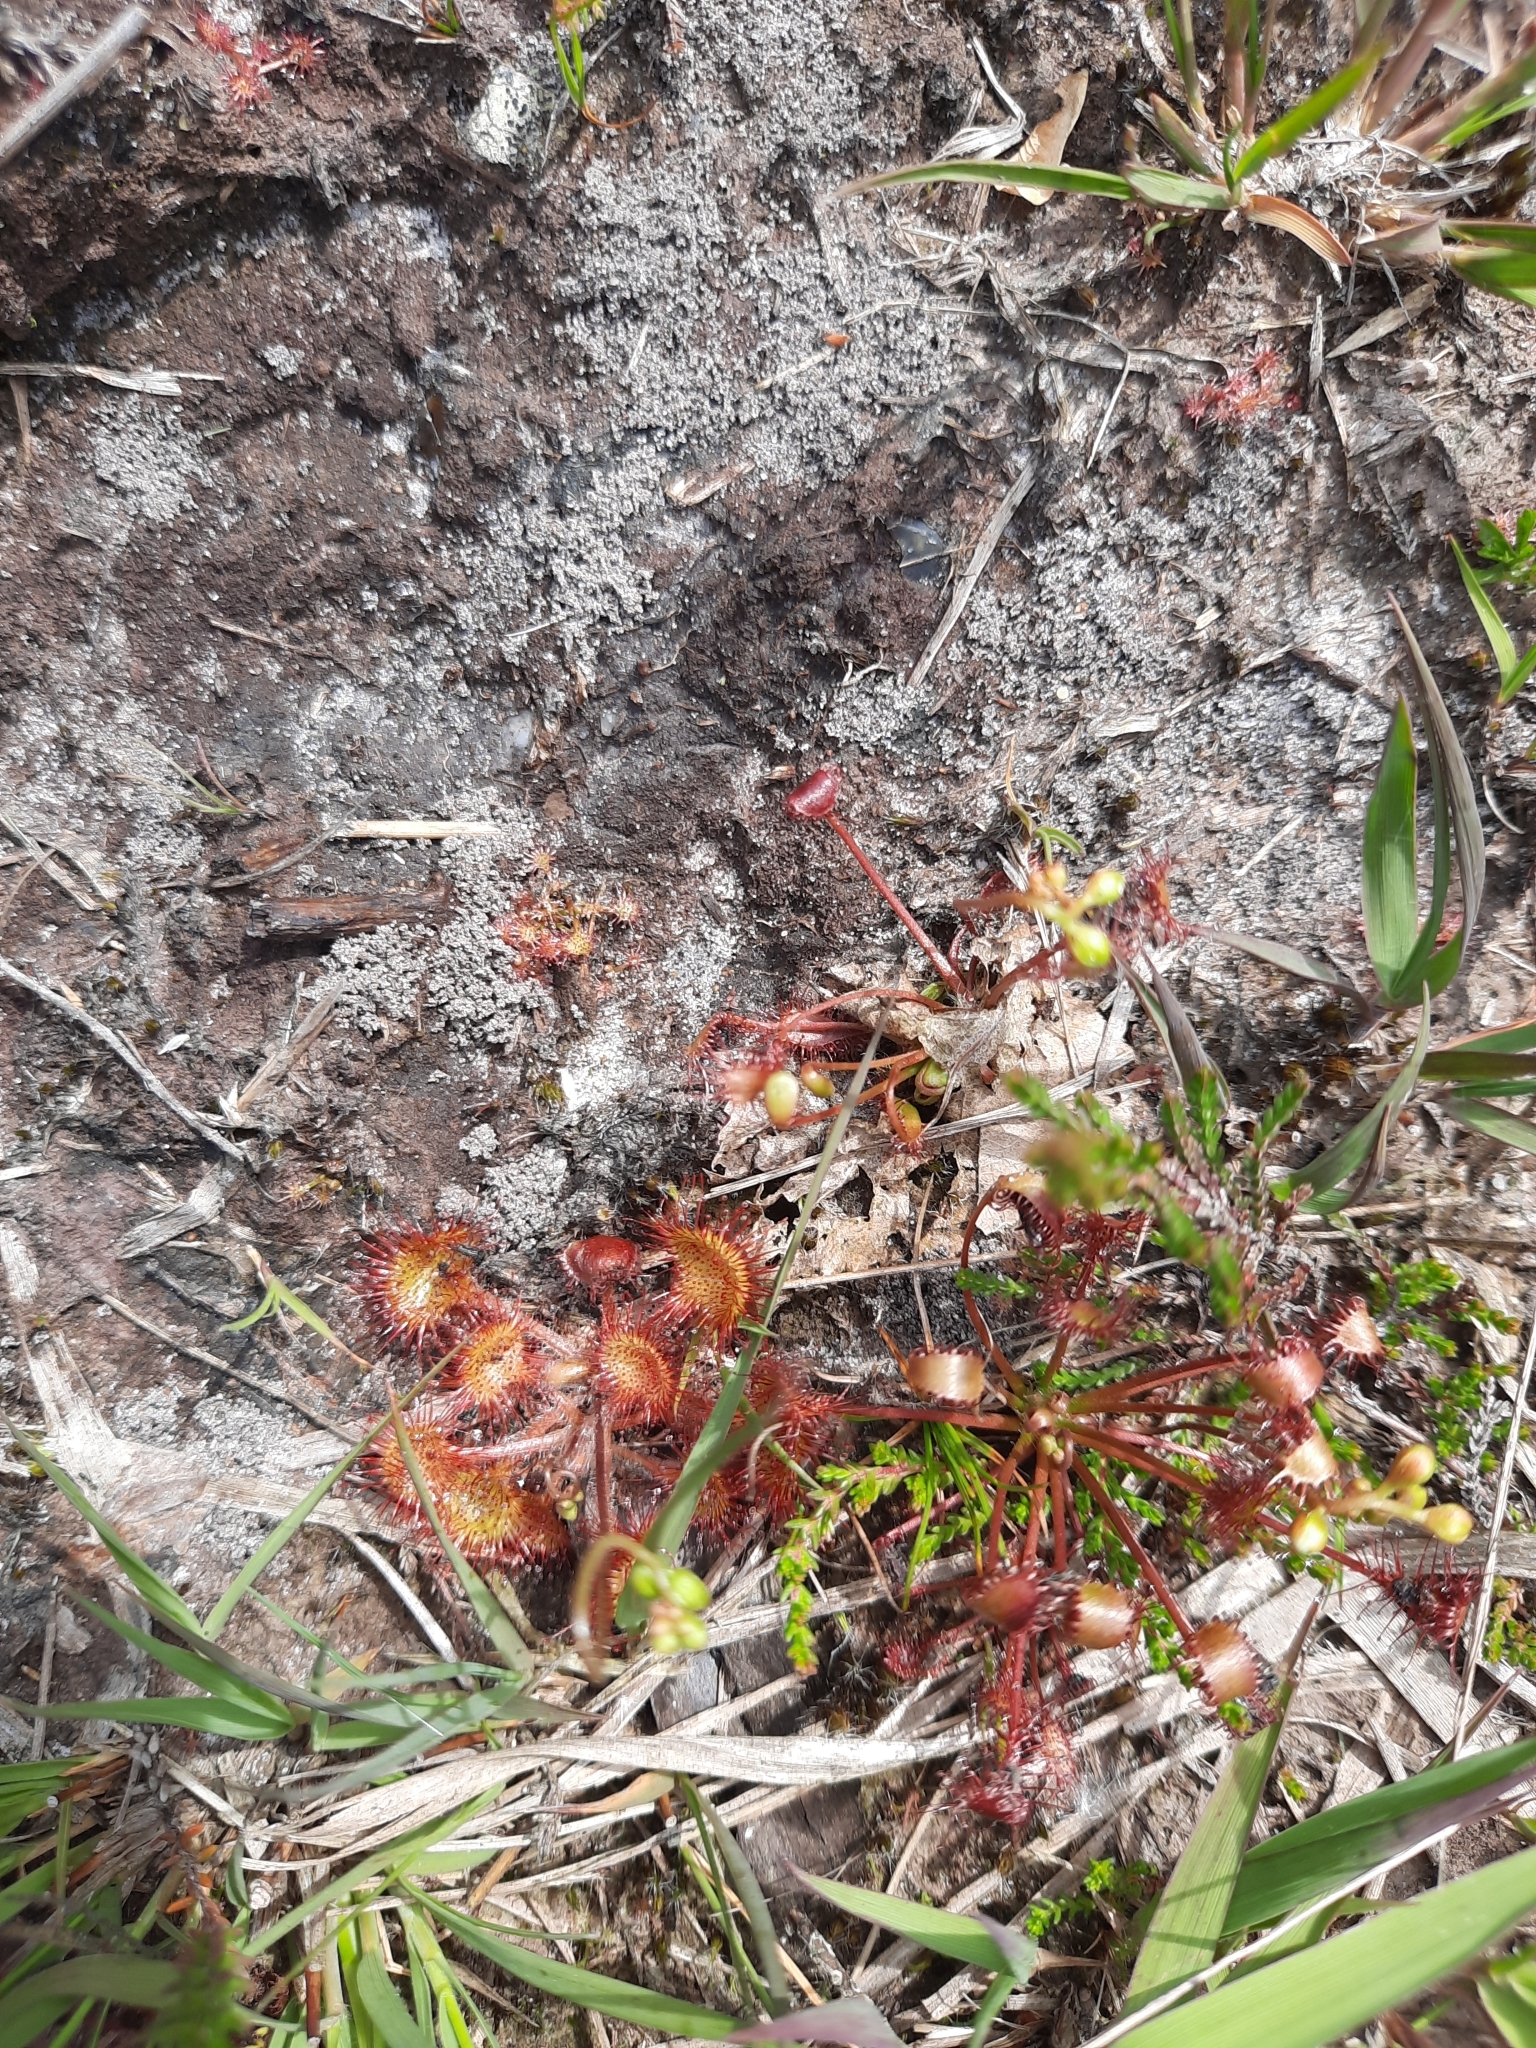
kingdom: Plantae
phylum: Tracheophyta
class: Magnoliopsida
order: Caryophyllales
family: Droseraceae
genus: Drosera
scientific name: Drosera rotundifolia
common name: Round-leaved sundew
